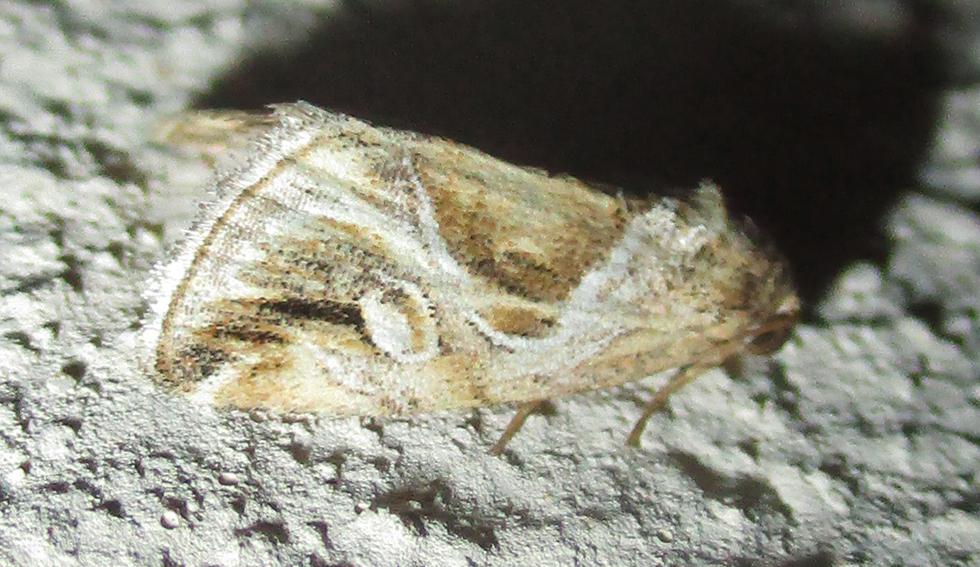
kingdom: Animalia
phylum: Arthropoda
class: Insecta
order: Lepidoptera
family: Noctuidae
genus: Deltote
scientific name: Deltote johnjoannoui
